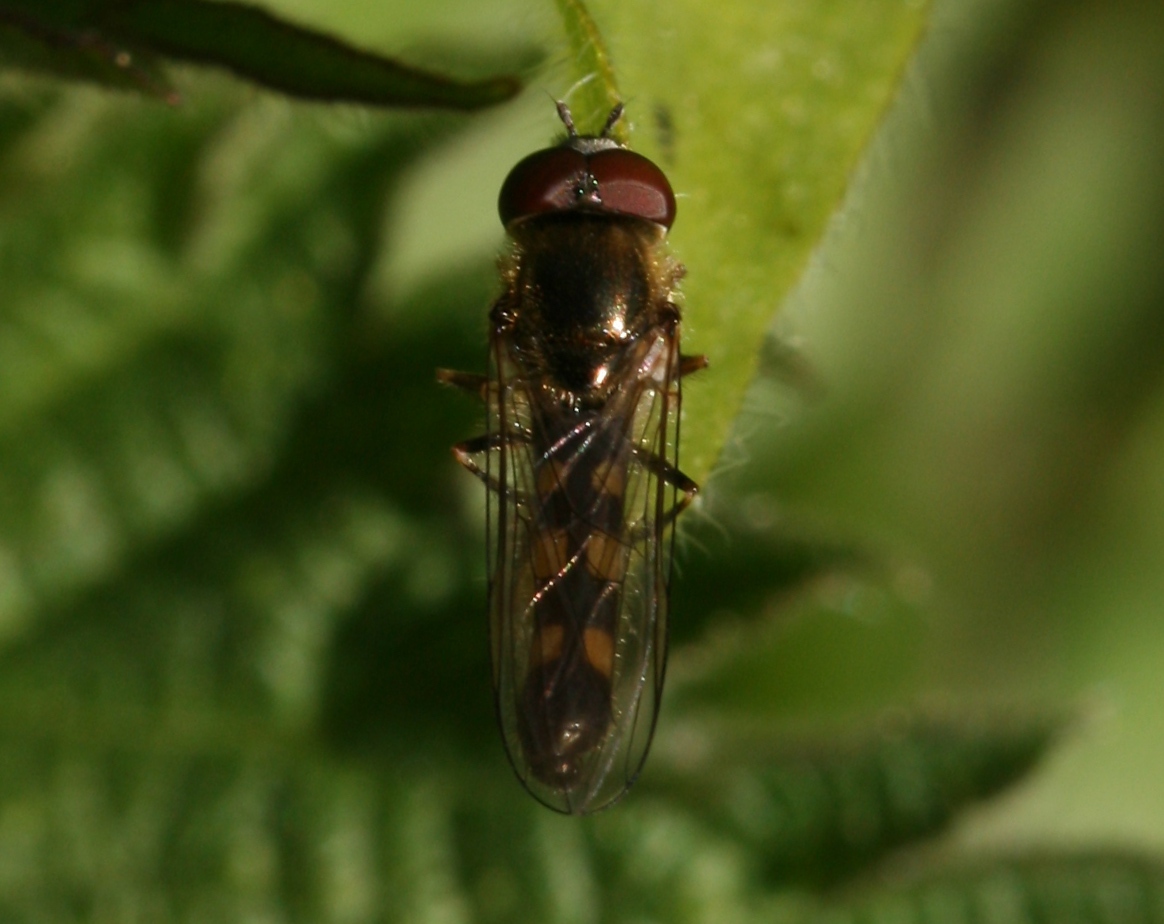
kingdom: Animalia
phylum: Arthropoda
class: Insecta
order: Diptera
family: Syrphidae
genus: Platycheirus
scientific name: Platycheirus scutatus
